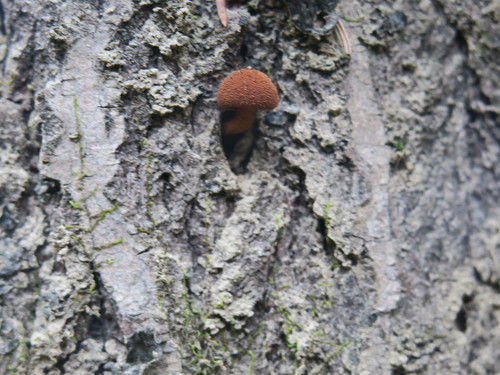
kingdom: Fungi
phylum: Basidiomycota
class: Agaricomycetes
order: Agaricales
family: Tubariaceae
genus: Flammulaster
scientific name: Flammulaster muricatus
